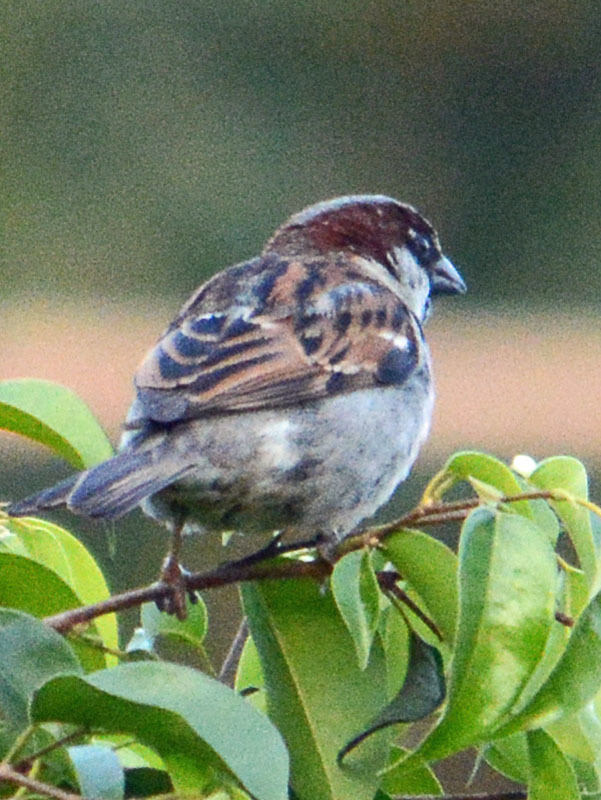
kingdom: Animalia
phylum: Chordata
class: Aves
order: Passeriformes
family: Passeridae
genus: Passer
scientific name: Passer domesticus
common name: House sparrow
